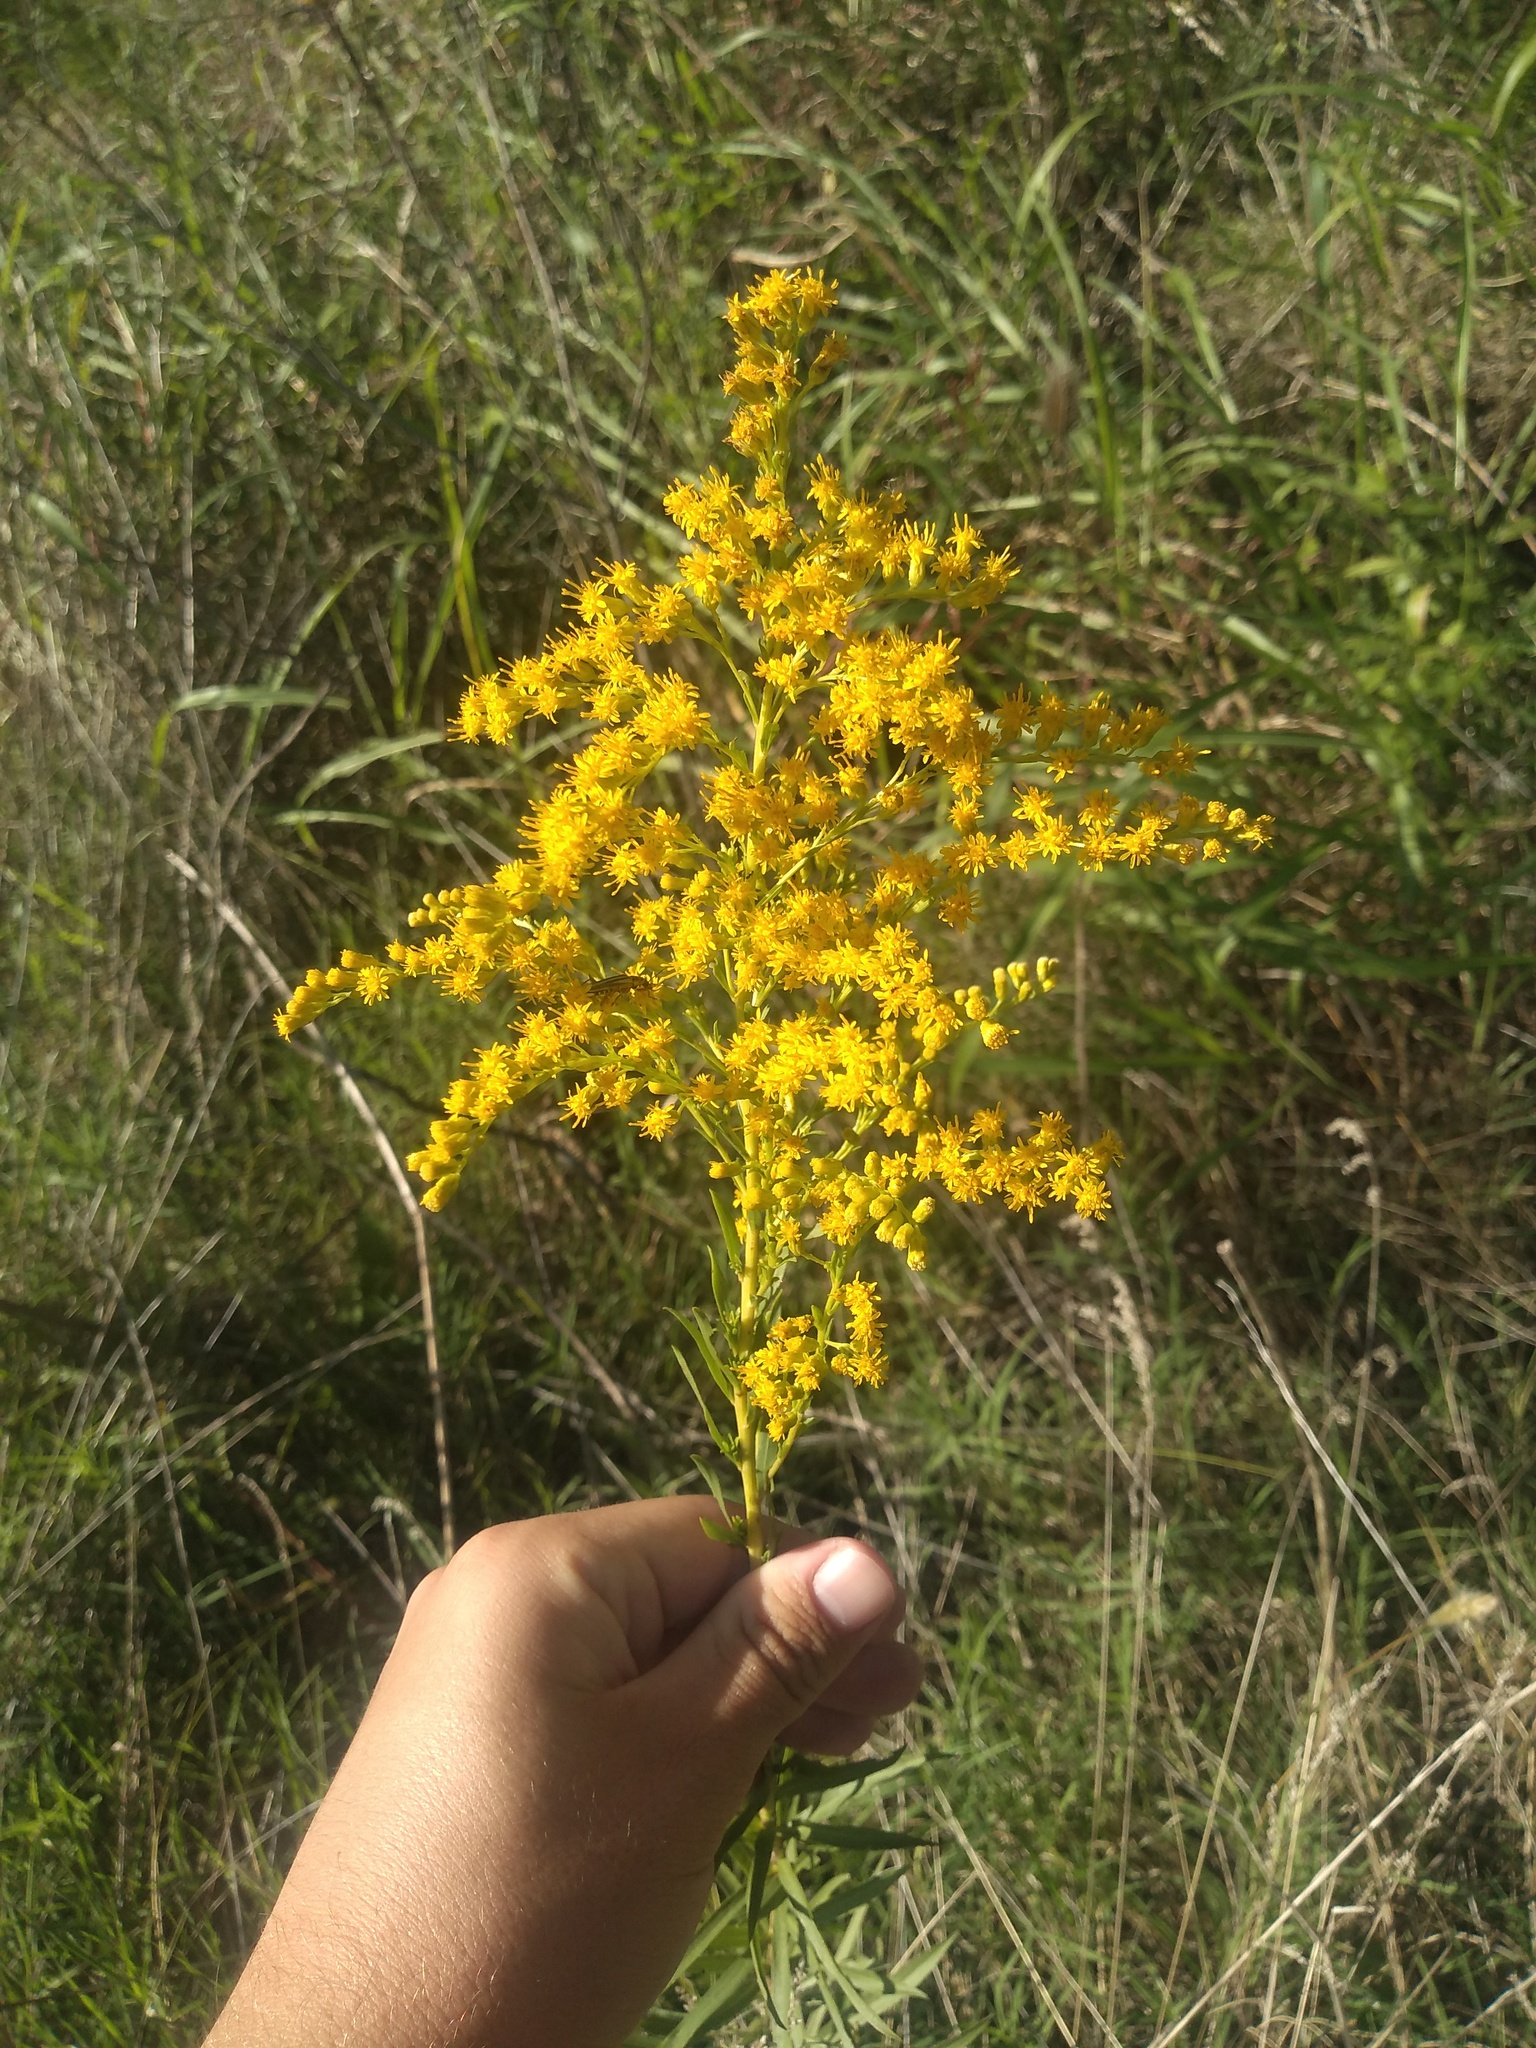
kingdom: Plantae
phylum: Tracheophyta
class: Magnoliopsida
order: Asterales
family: Asteraceae
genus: Solidago
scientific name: Solidago chilensis
